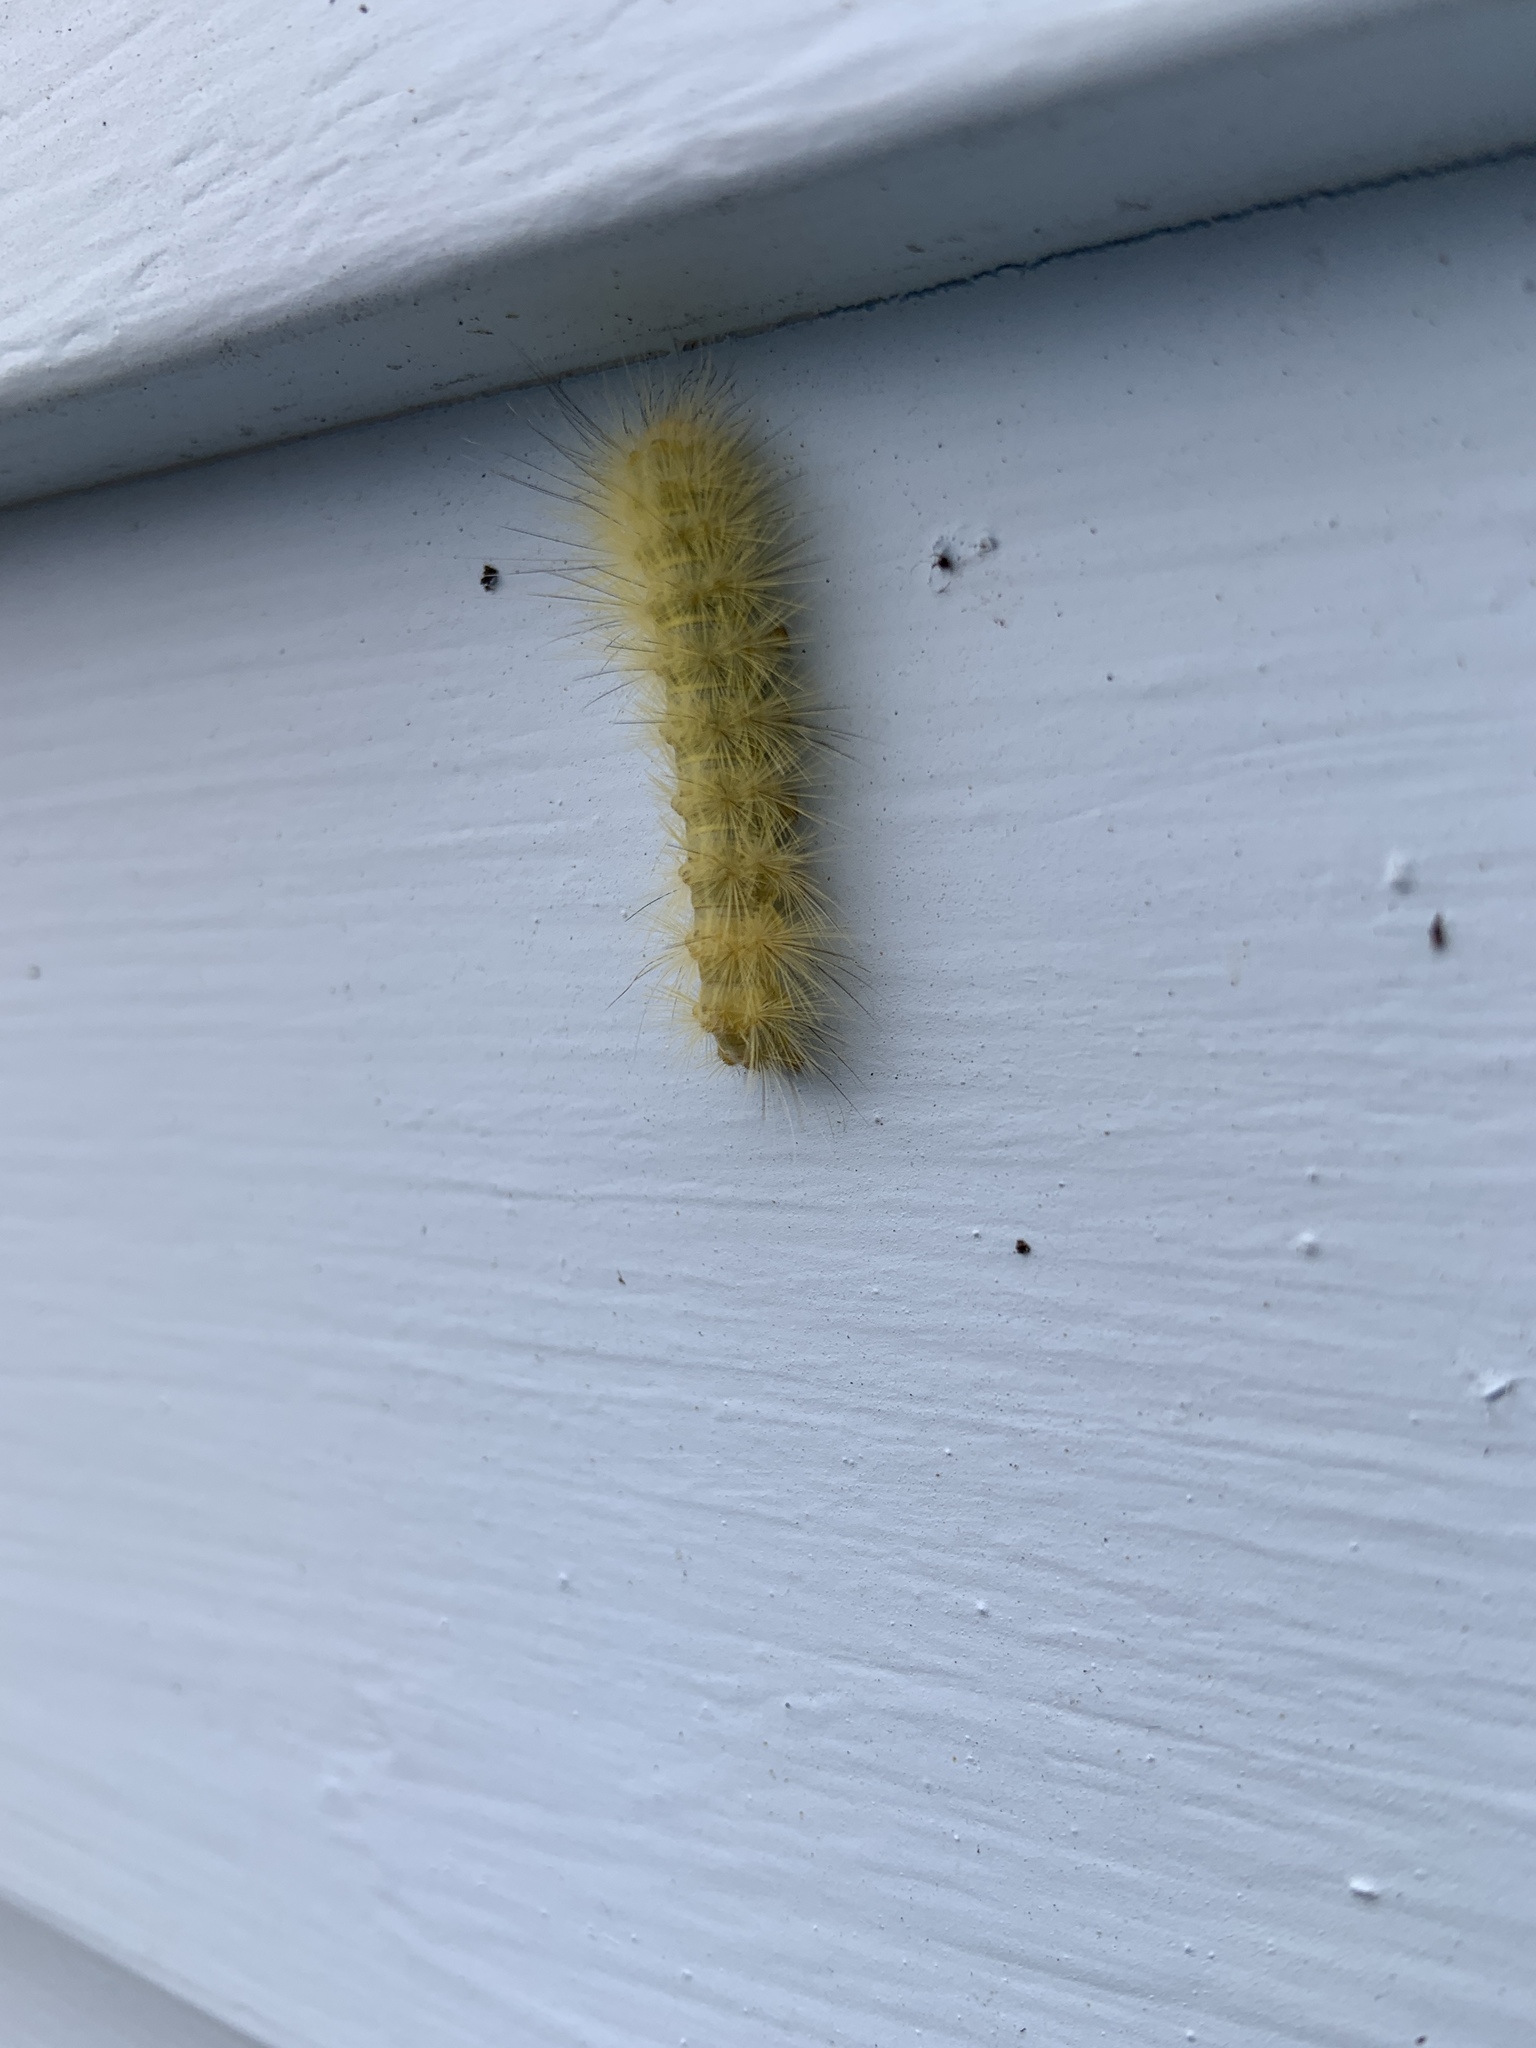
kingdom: Animalia
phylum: Arthropoda
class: Insecta
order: Lepidoptera
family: Erebidae
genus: Spilosoma
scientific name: Spilosoma virginica
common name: Virginia tiger moth
